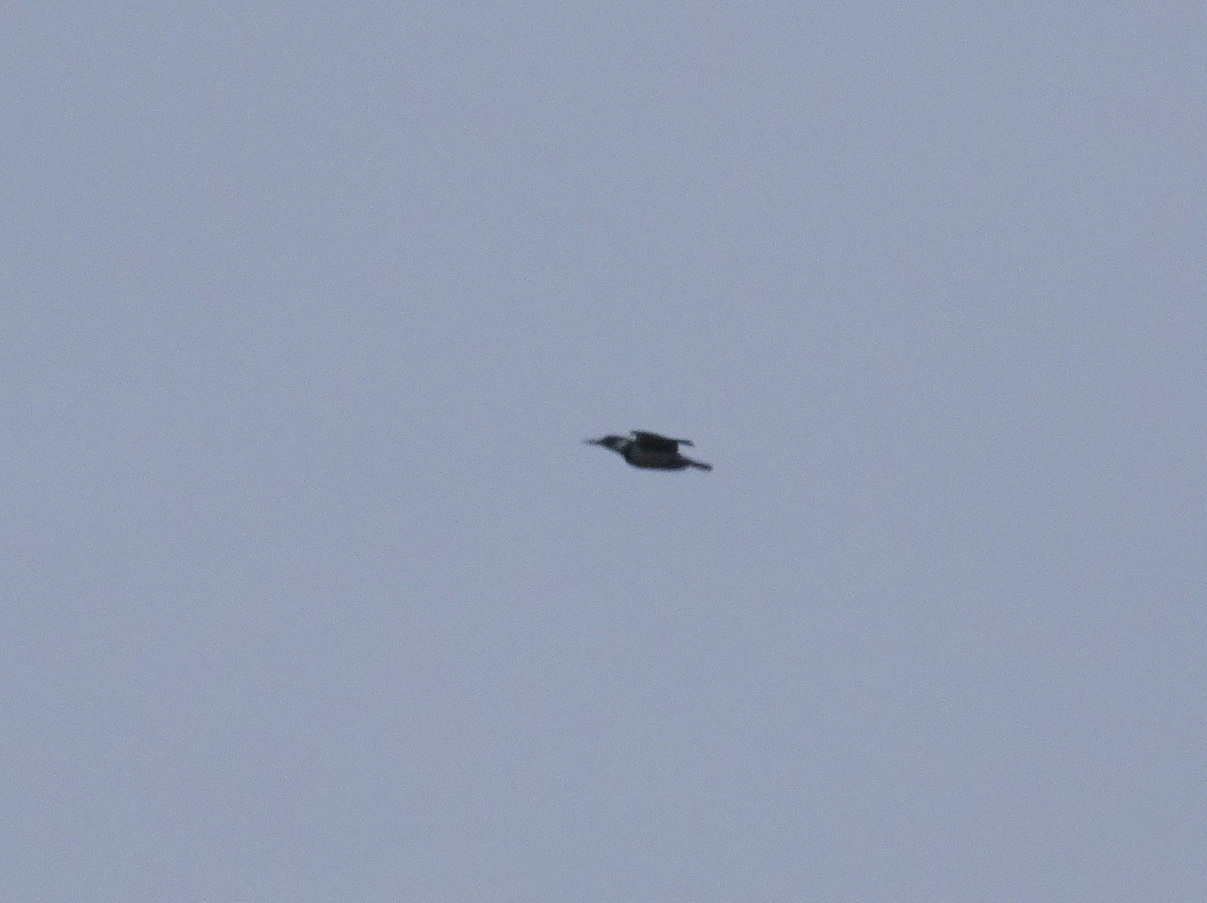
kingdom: Animalia
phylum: Chordata
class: Aves
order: Coraciiformes
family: Alcedinidae
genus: Megaceryle
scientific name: Megaceryle alcyon
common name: Belted kingfisher
